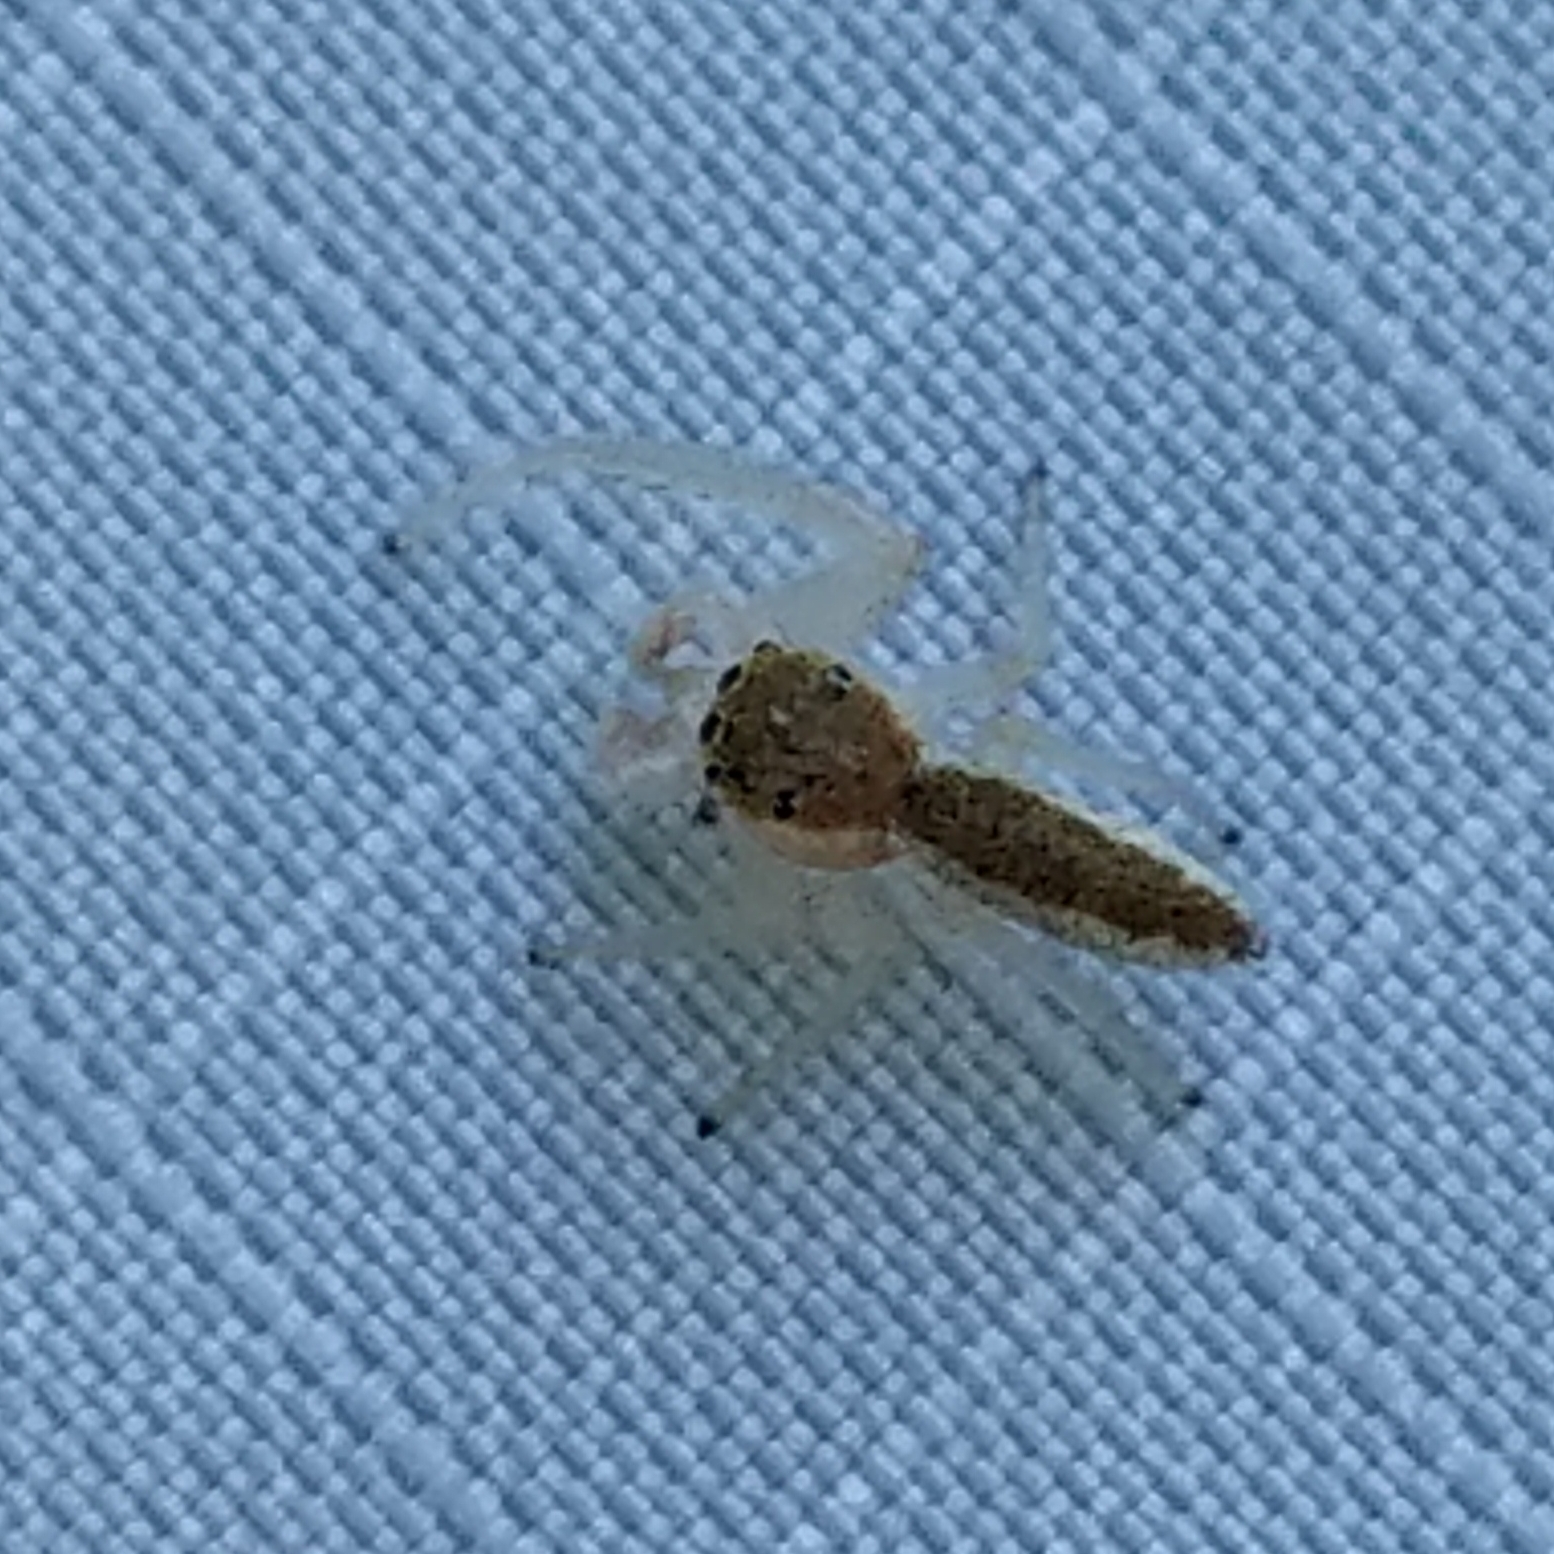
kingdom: Animalia
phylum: Arthropoda
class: Arachnida
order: Araneae
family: Salticidae
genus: Hentzia
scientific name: Hentzia mitrata
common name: White-jawed jumping spider
